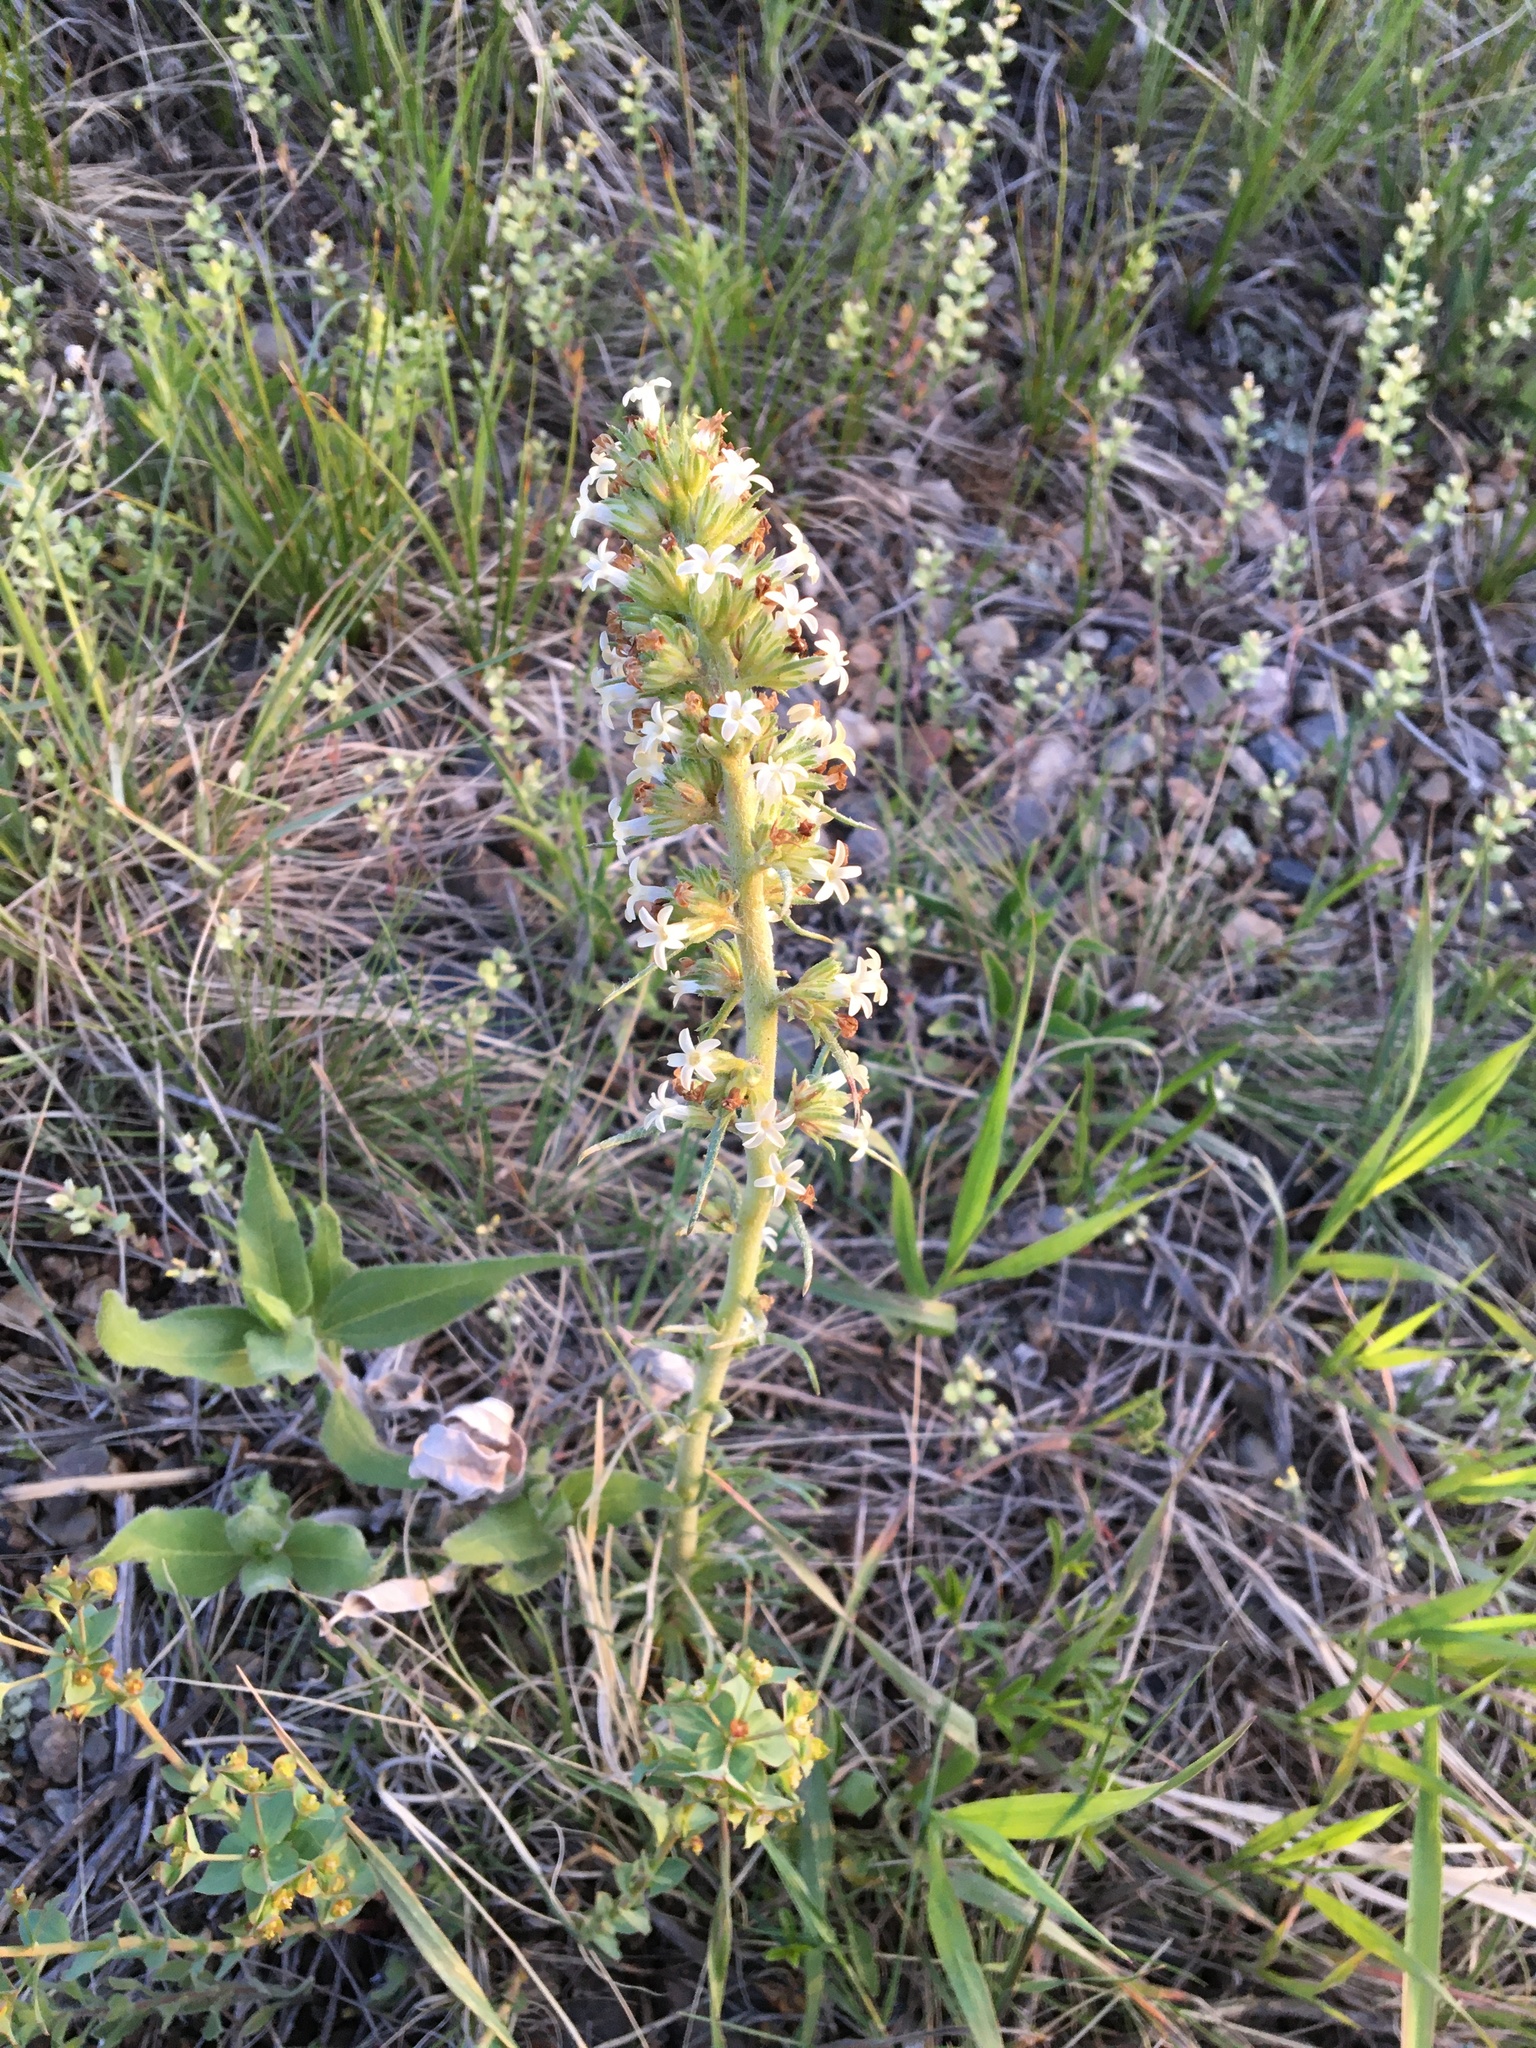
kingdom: Plantae
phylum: Tracheophyta
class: Magnoliopsida
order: Ericales
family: Polemoniaceae
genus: Ipomopsis
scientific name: Ipomopsis spicata
